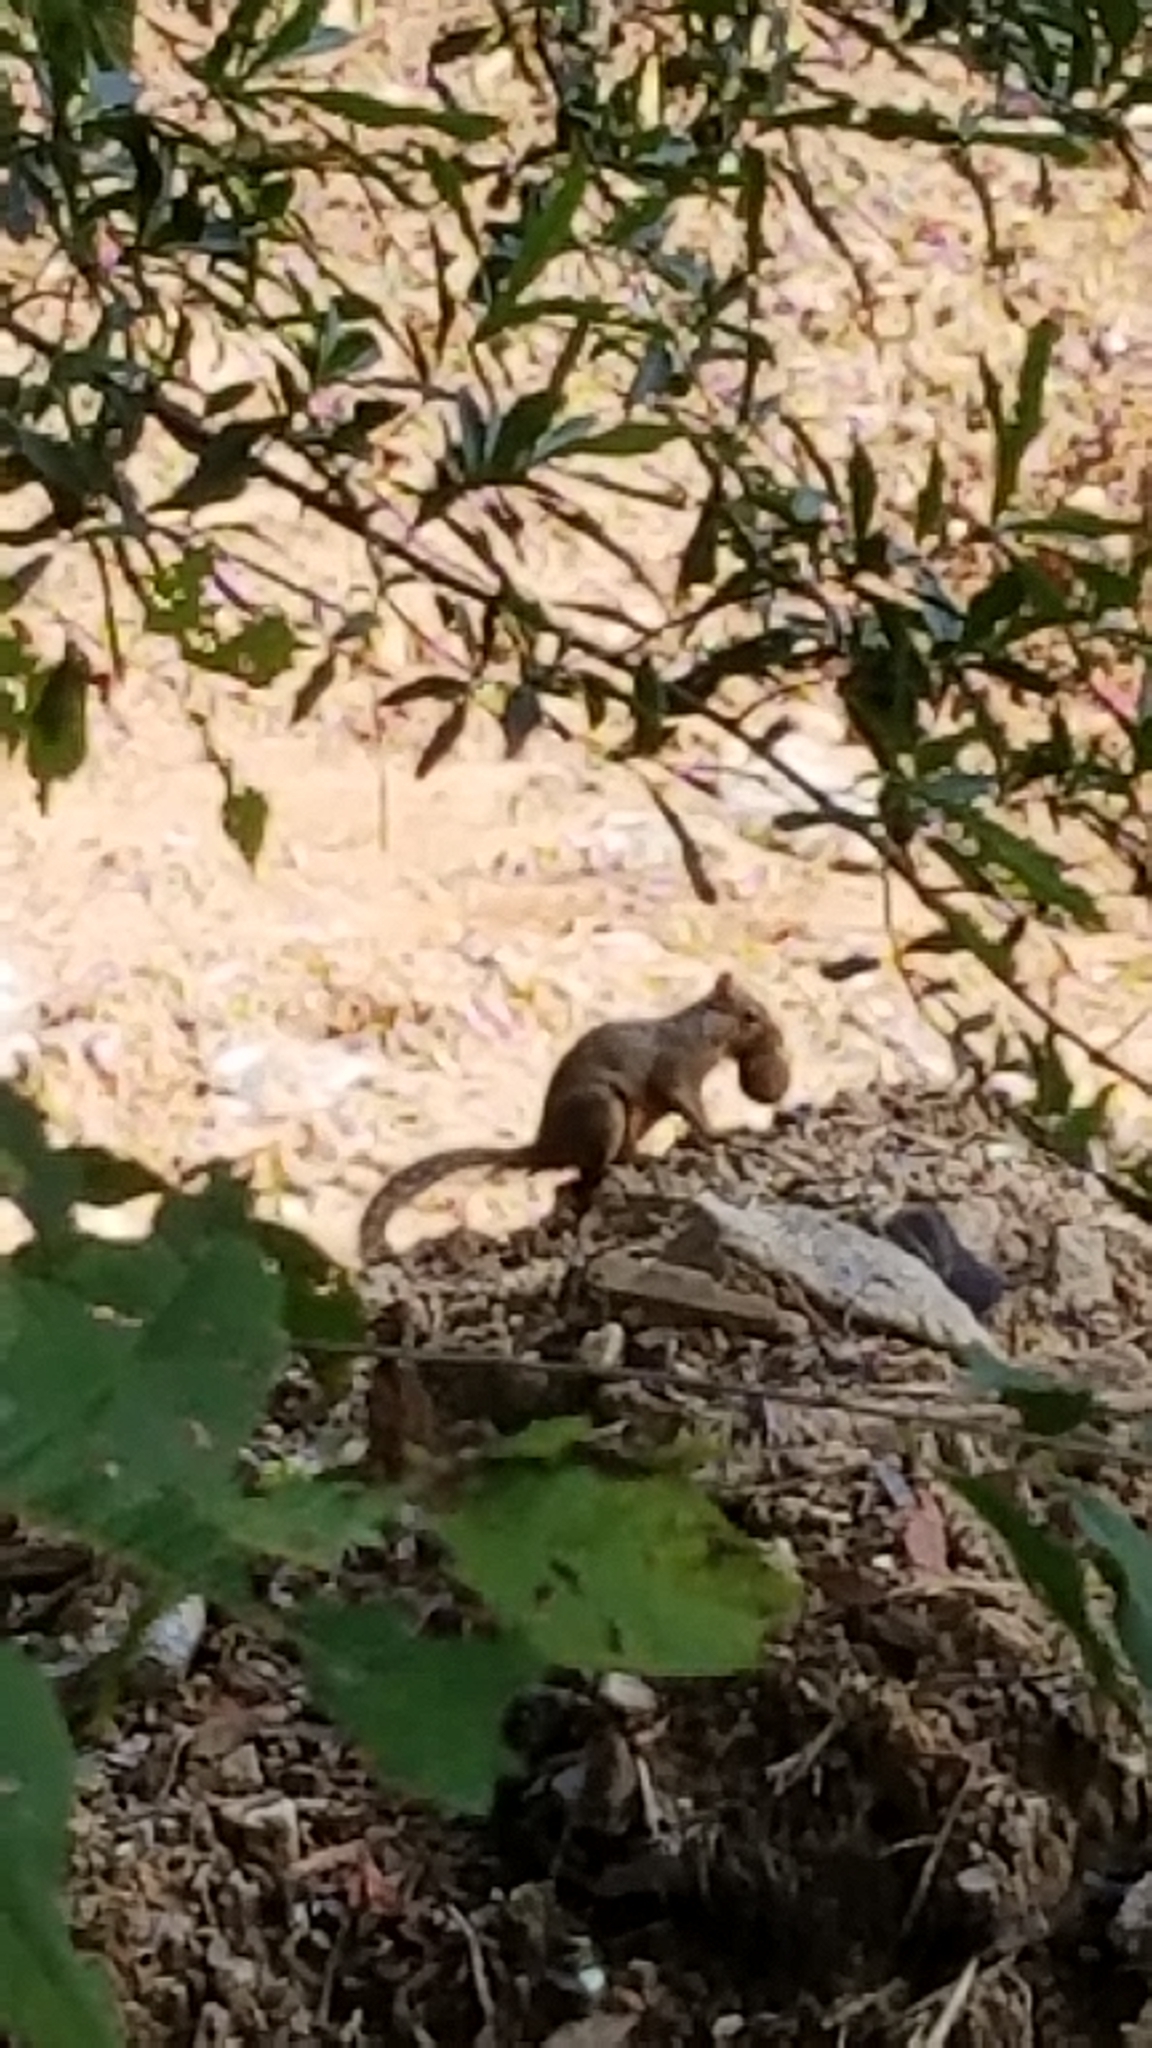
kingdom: Animalia
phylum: Chordata
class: Mammalia
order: Rodentia
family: Sciuridae
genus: Sciurus
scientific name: Sciurus carolinensis
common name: Eastern gray squirrel
